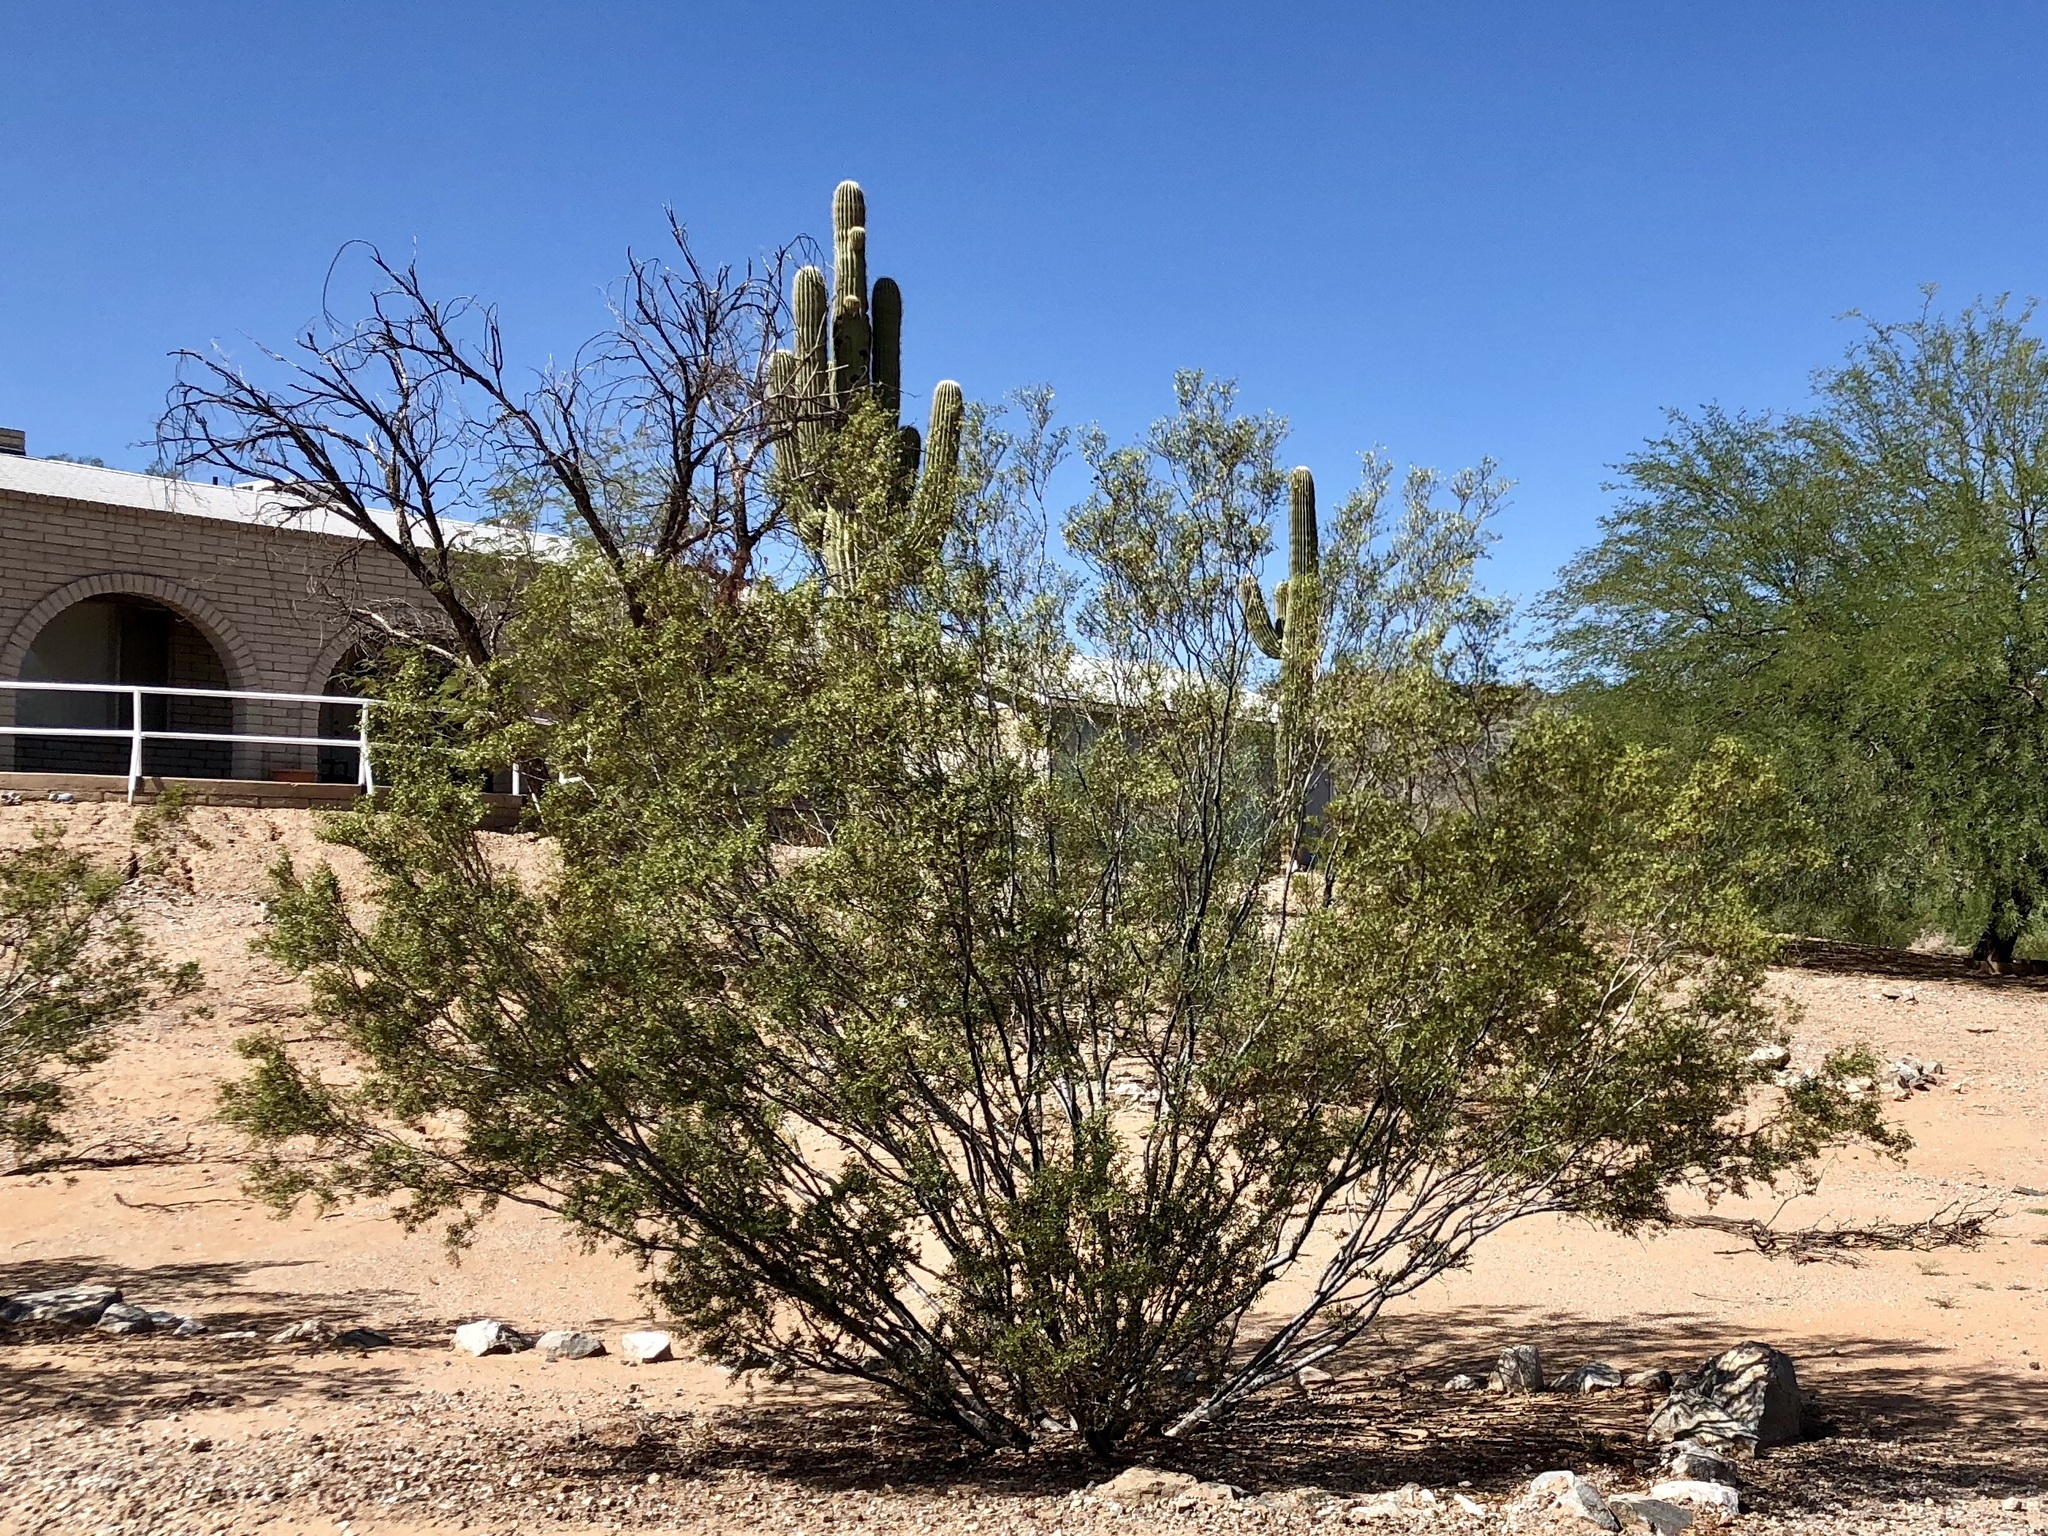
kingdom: Plantae
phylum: Tracheophyta
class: Magnoliopsida
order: Zygophyllales
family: Zygophyllaceae
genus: Larrea
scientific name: Larrea tridentata
